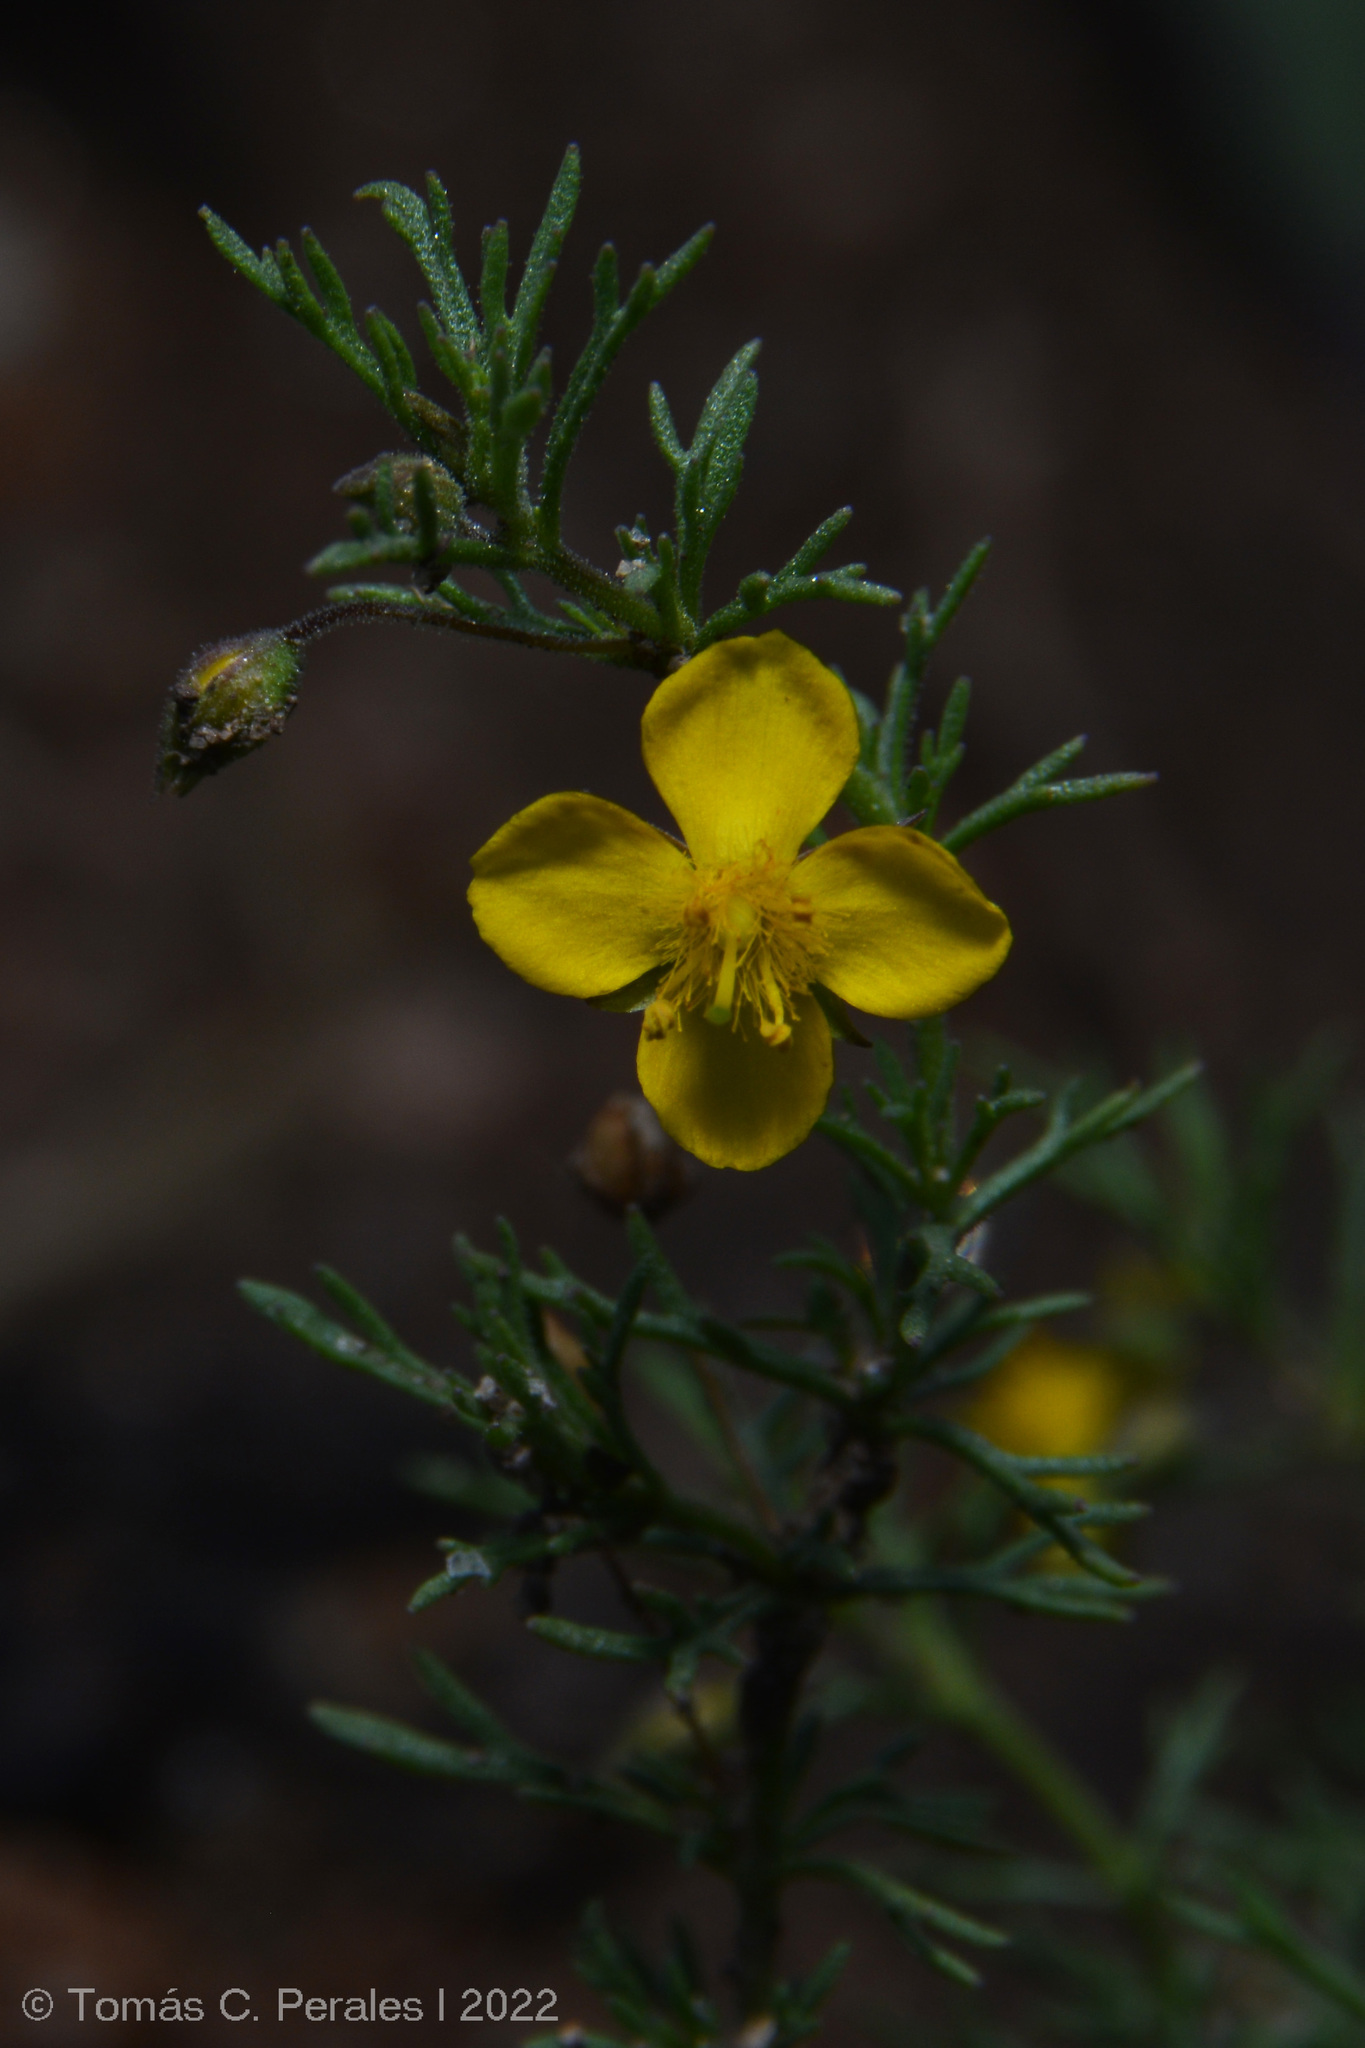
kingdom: Plantae
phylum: Tracheophyta
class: Magnoliopsida
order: Lamiales
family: Plantaginaceae
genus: Scoparia
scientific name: Scoparia montevidensis
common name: Broomwort
